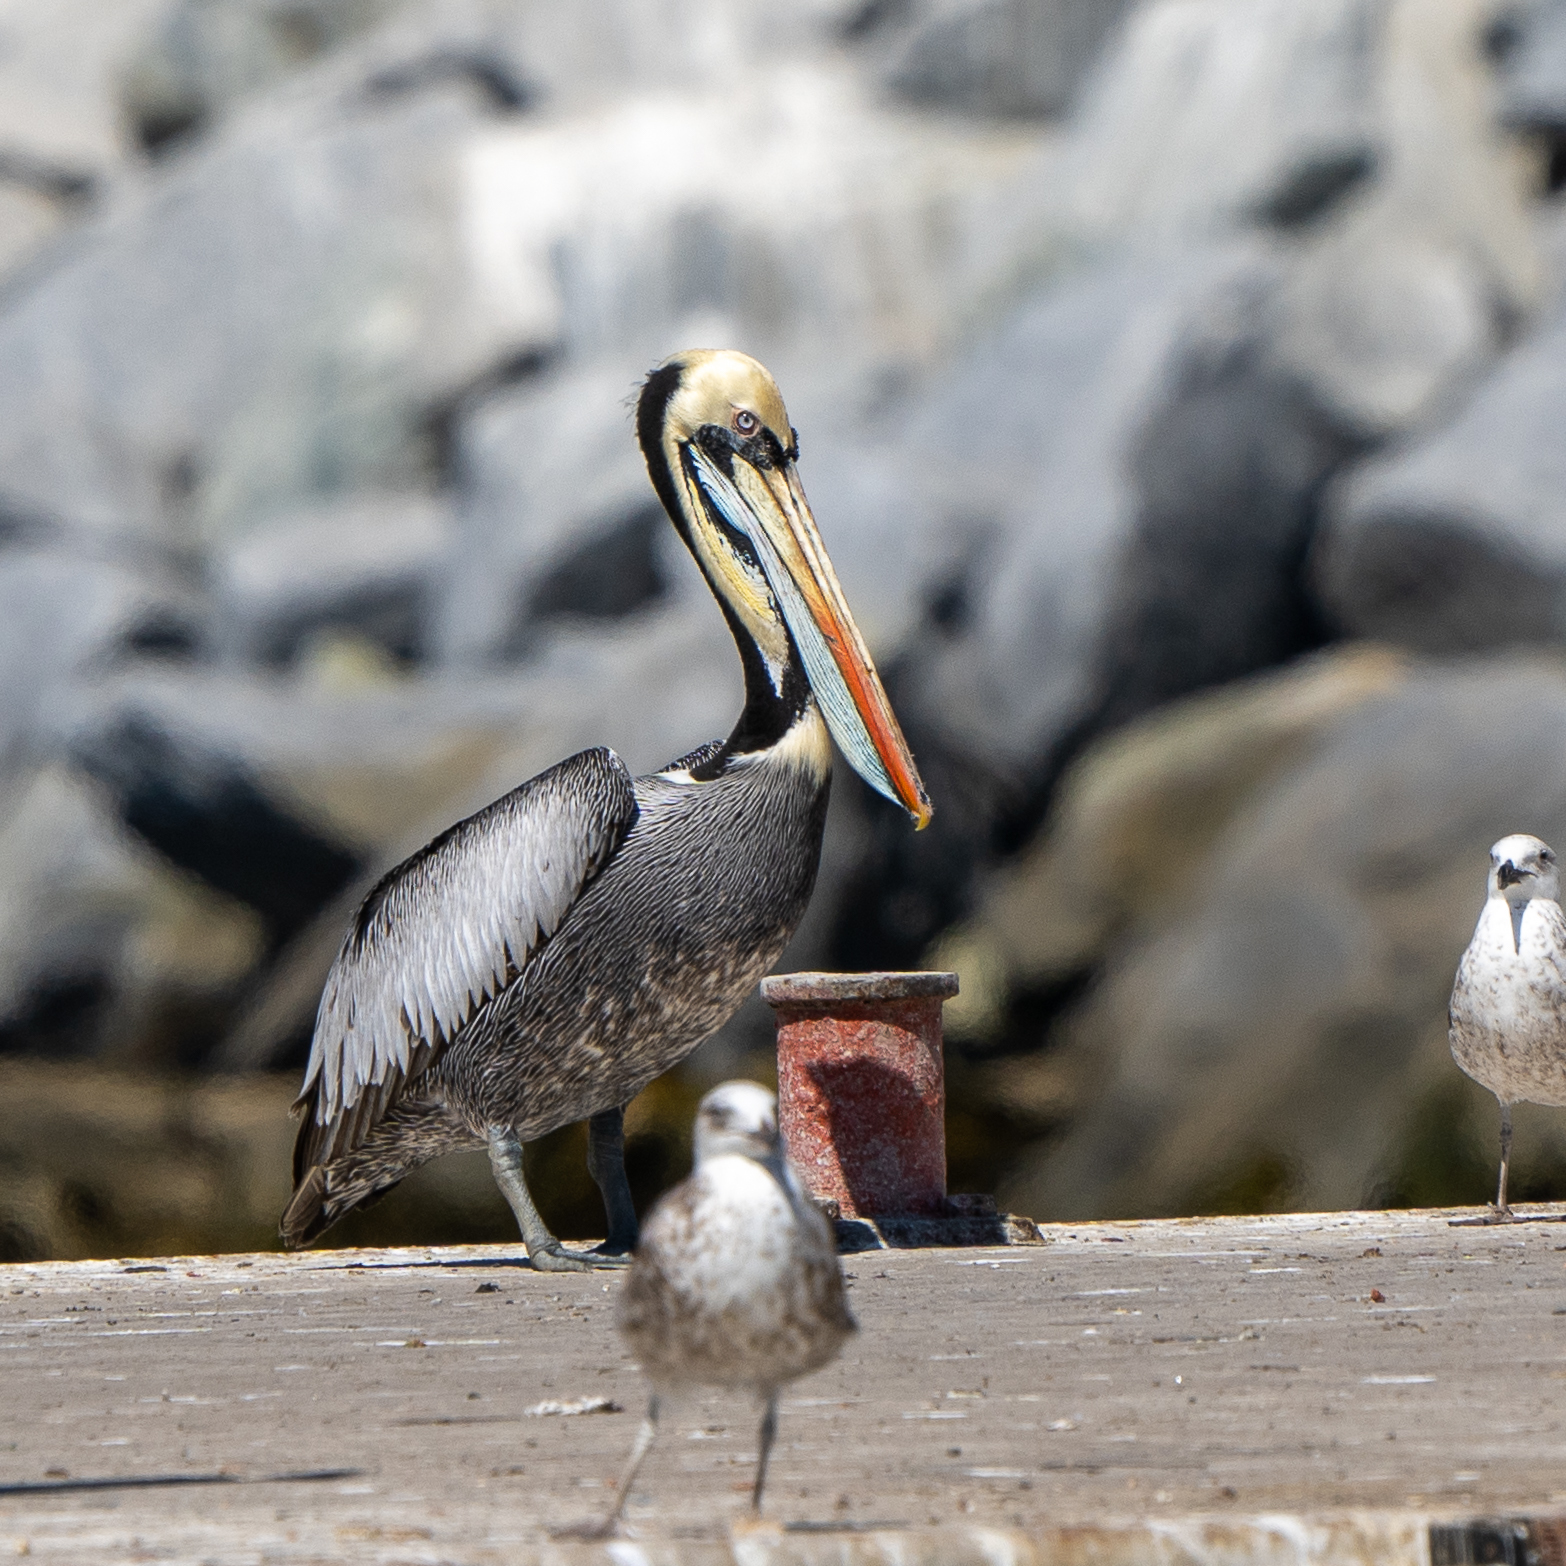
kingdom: Animalia
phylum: Chordata
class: Aves
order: Pelecaniformes
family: Pelecanidae
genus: Pelecanus
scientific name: Pelecanus thagus
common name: Peruvian pelican
